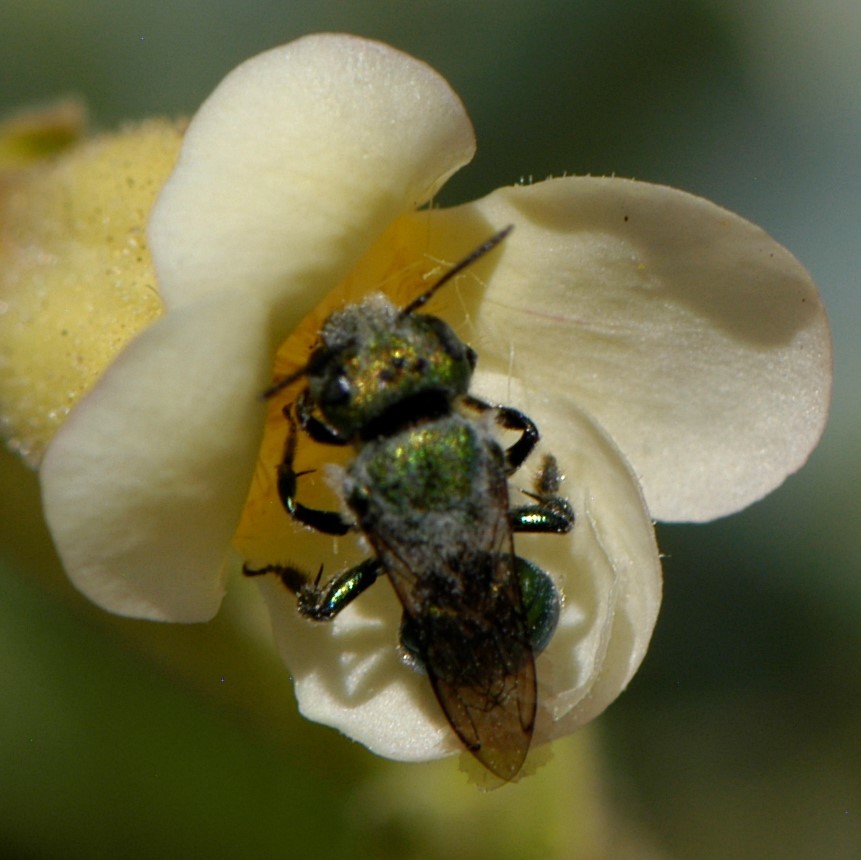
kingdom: Animalia
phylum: Arthropoda
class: Insecta
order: Hymenoptera
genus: Melanosmia
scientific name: Melanosmia
